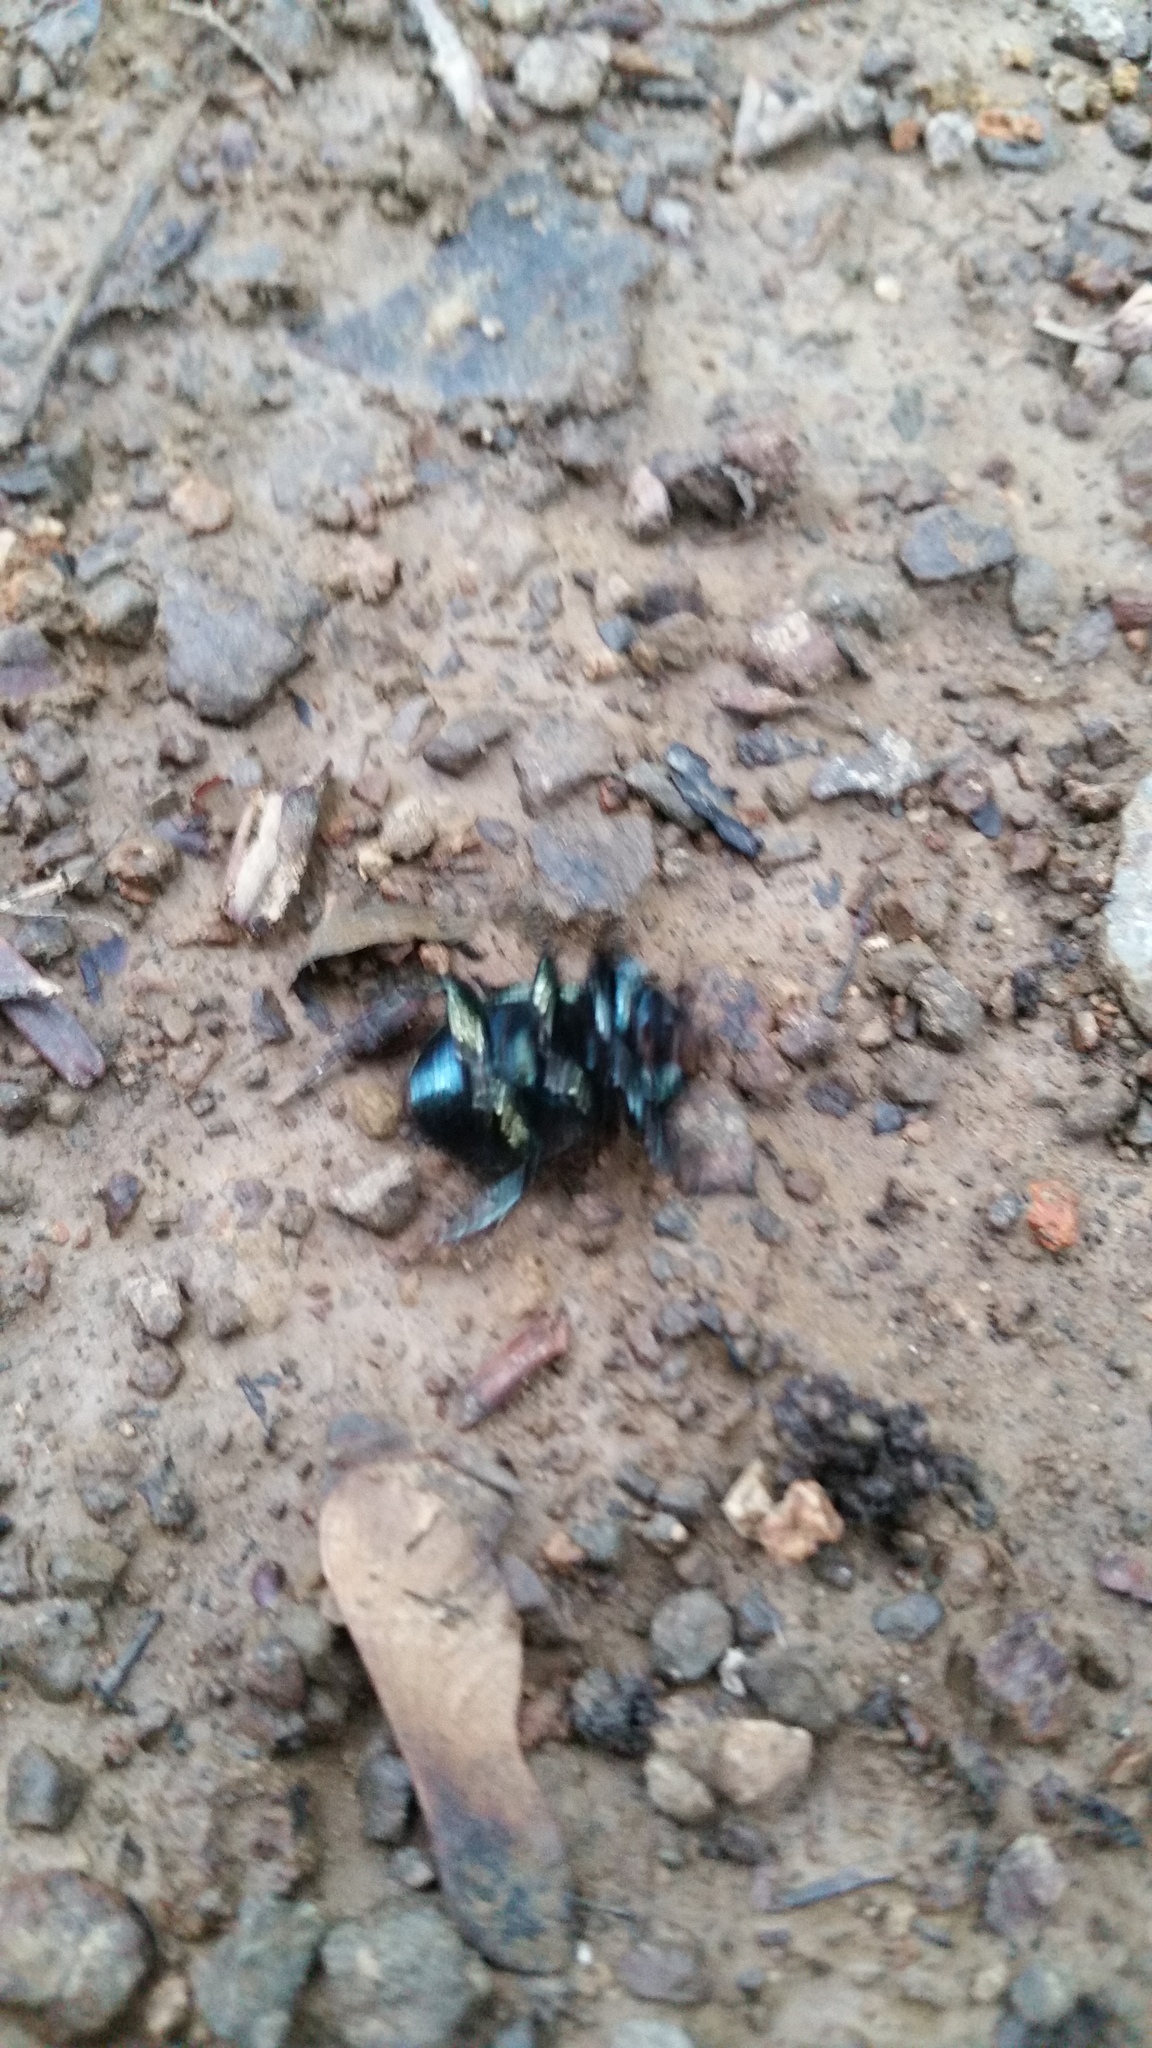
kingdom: Animalia
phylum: Arthropoda
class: Insecta
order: Coleoptera
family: Geotrupidae
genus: Phelotrupes
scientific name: Phelotrupes laevistriatus
